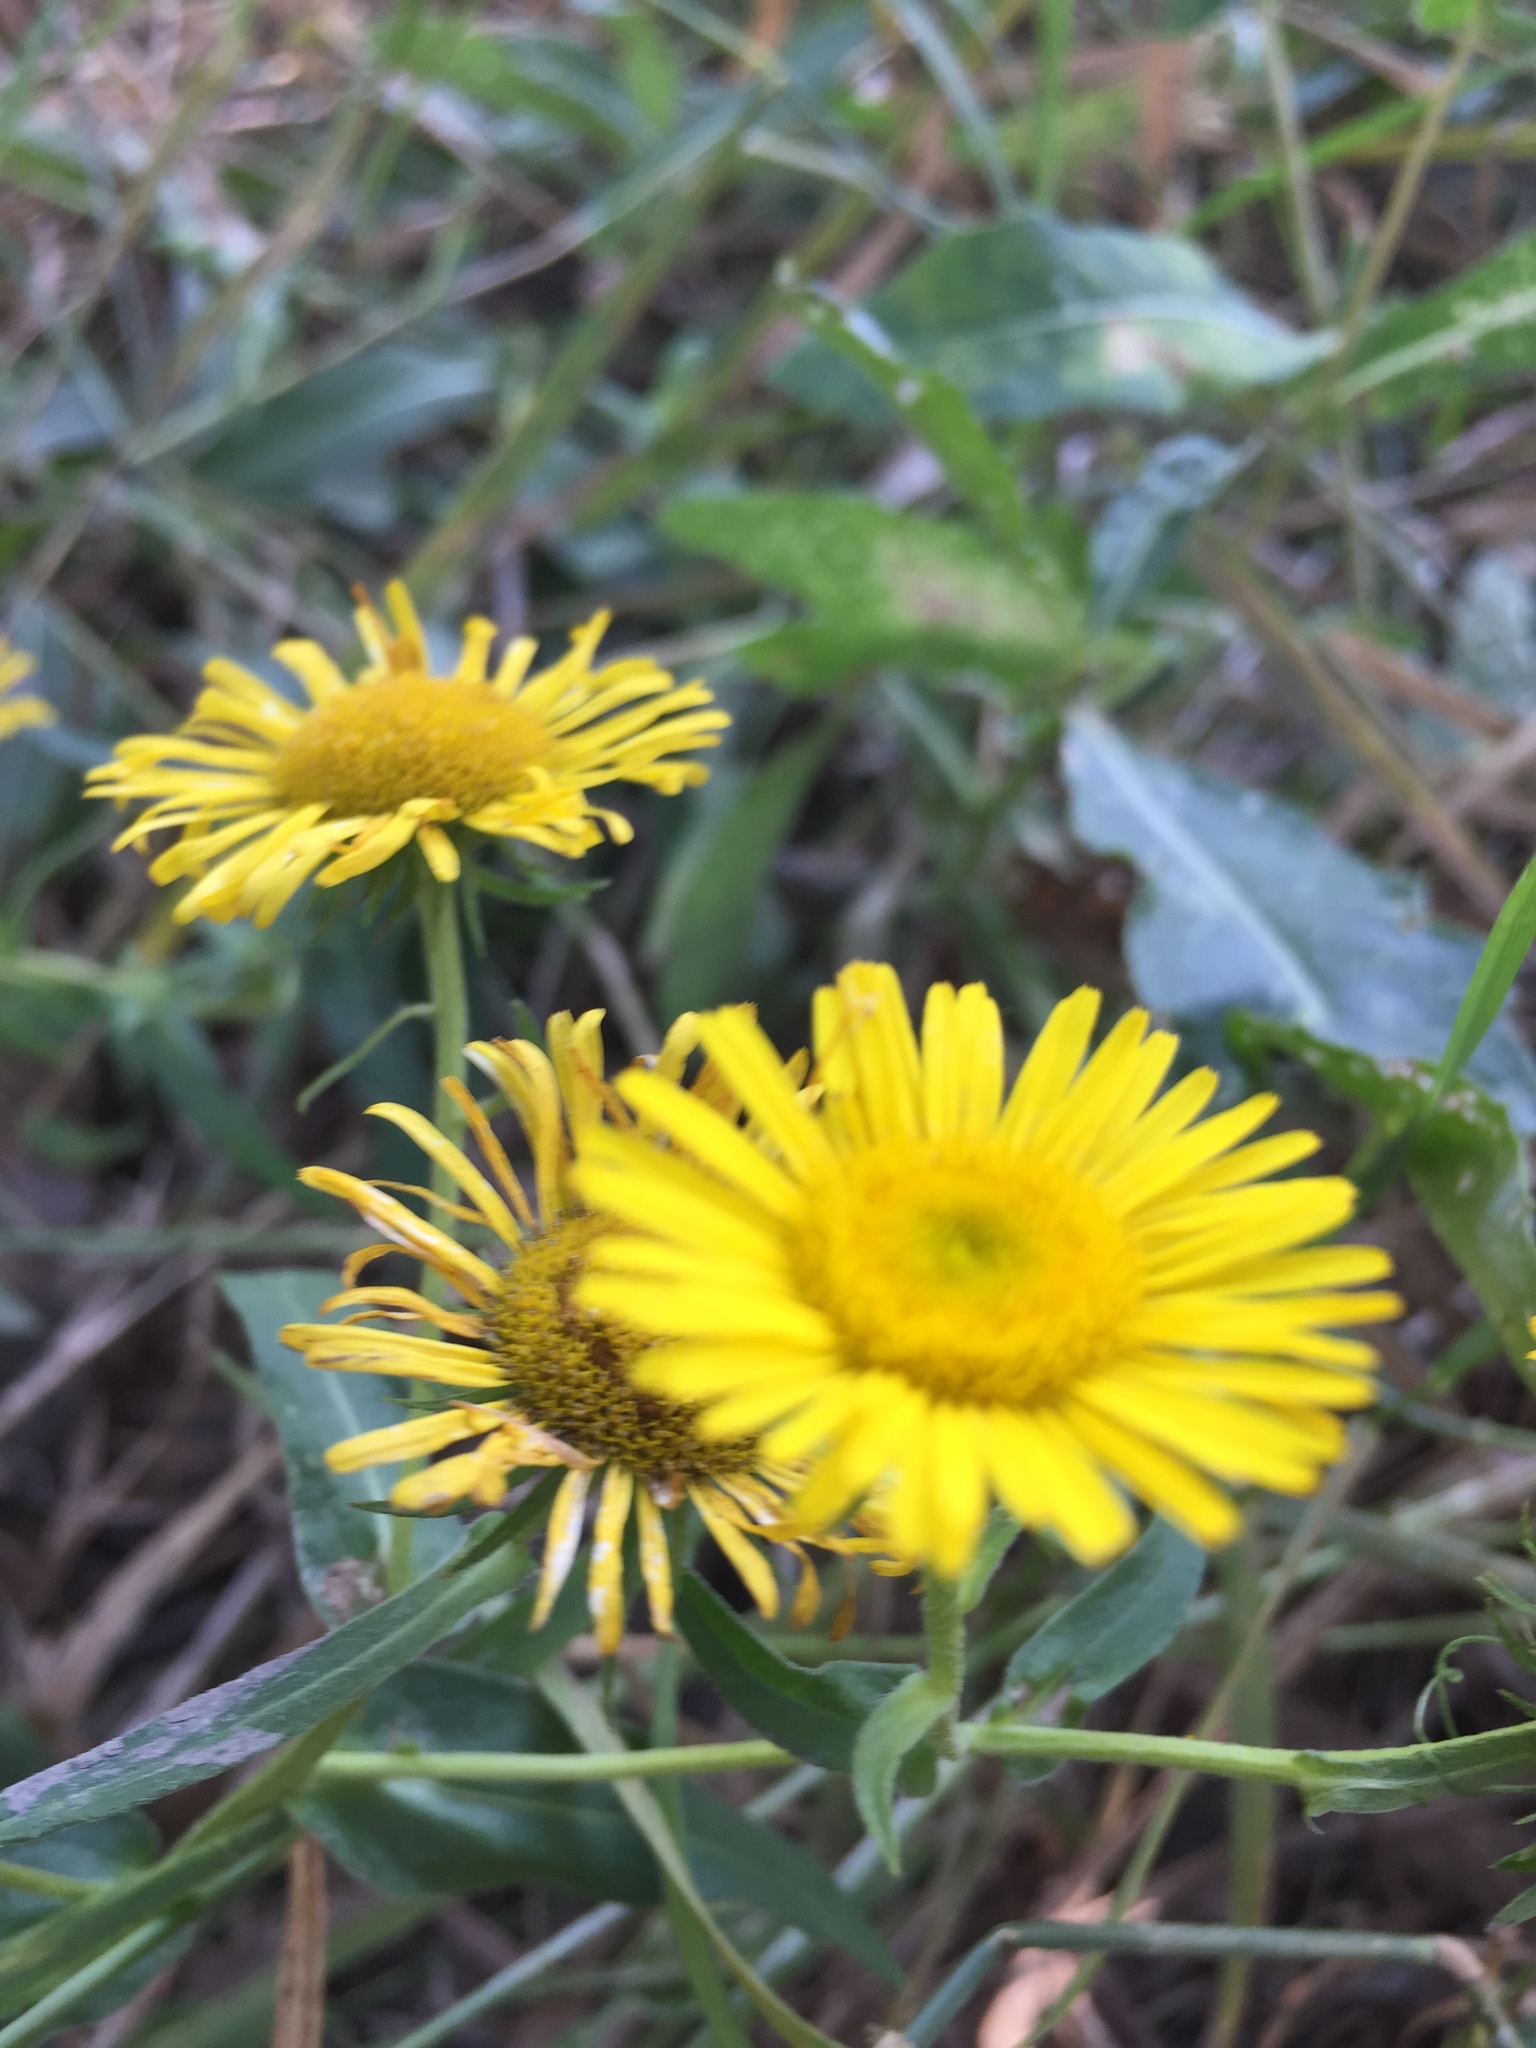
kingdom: Plantae
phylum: Tracheophyta
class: Magnoliopsida
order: Asterales
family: Asteraceae
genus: Pentanema
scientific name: Pentanema britannicum
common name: British elecampane
